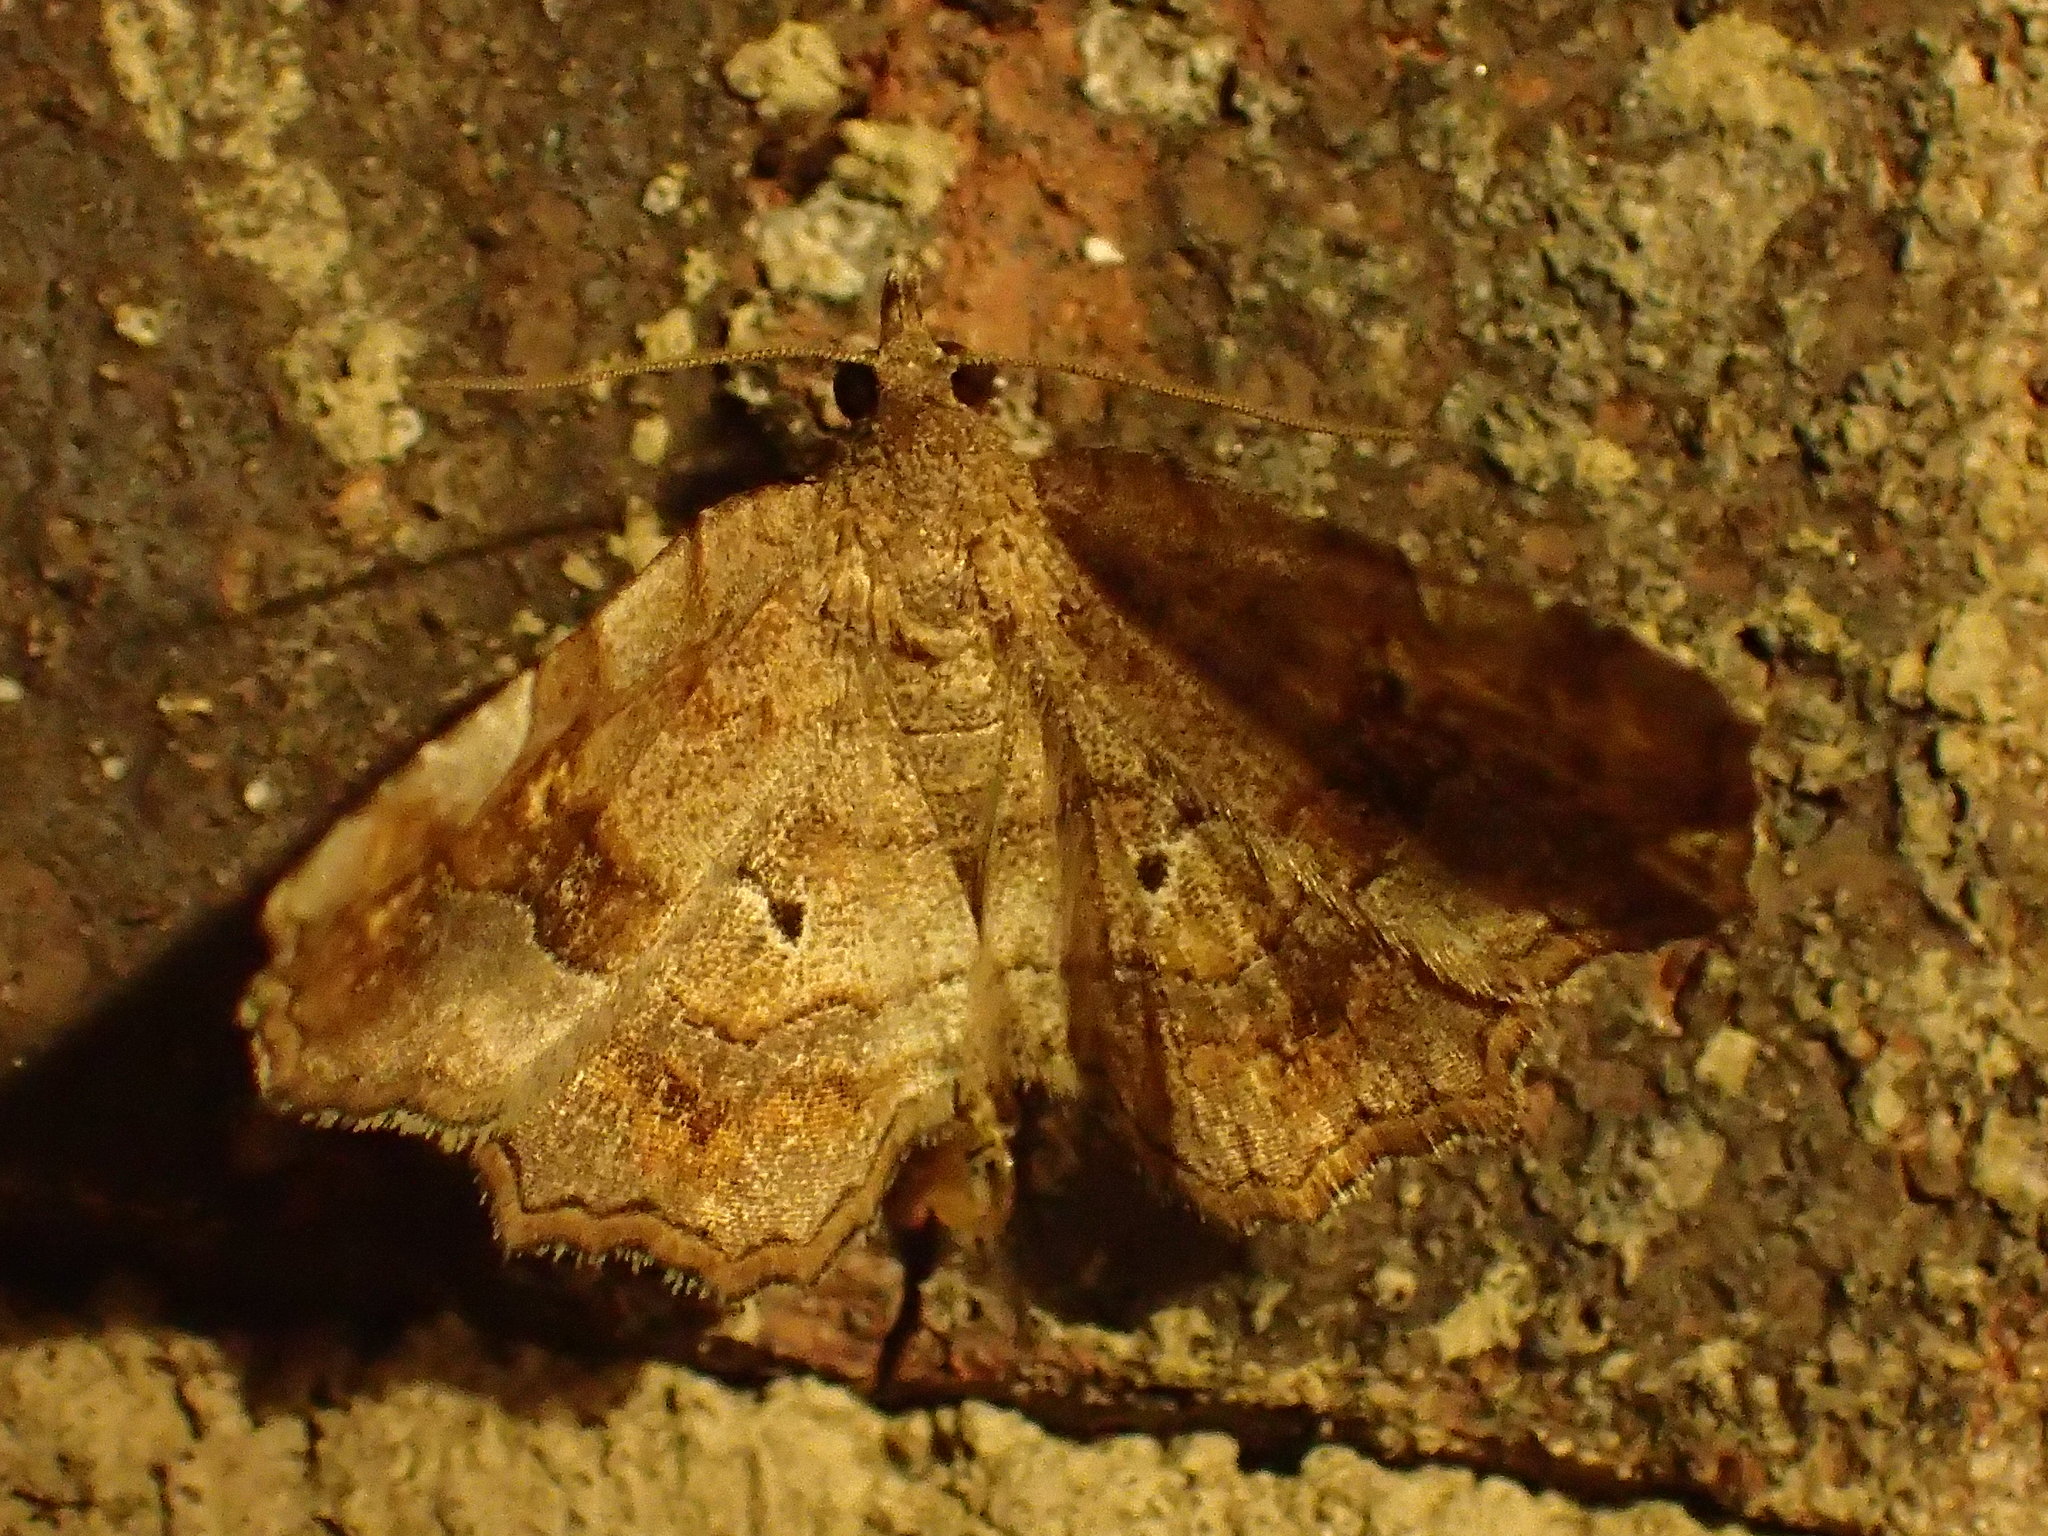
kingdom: Animalia
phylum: Arthropoda
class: Insecta
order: Lepidoptera
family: Erebidae
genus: Pangrapta
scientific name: Pangrapta decoralis
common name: Decorated owlet
